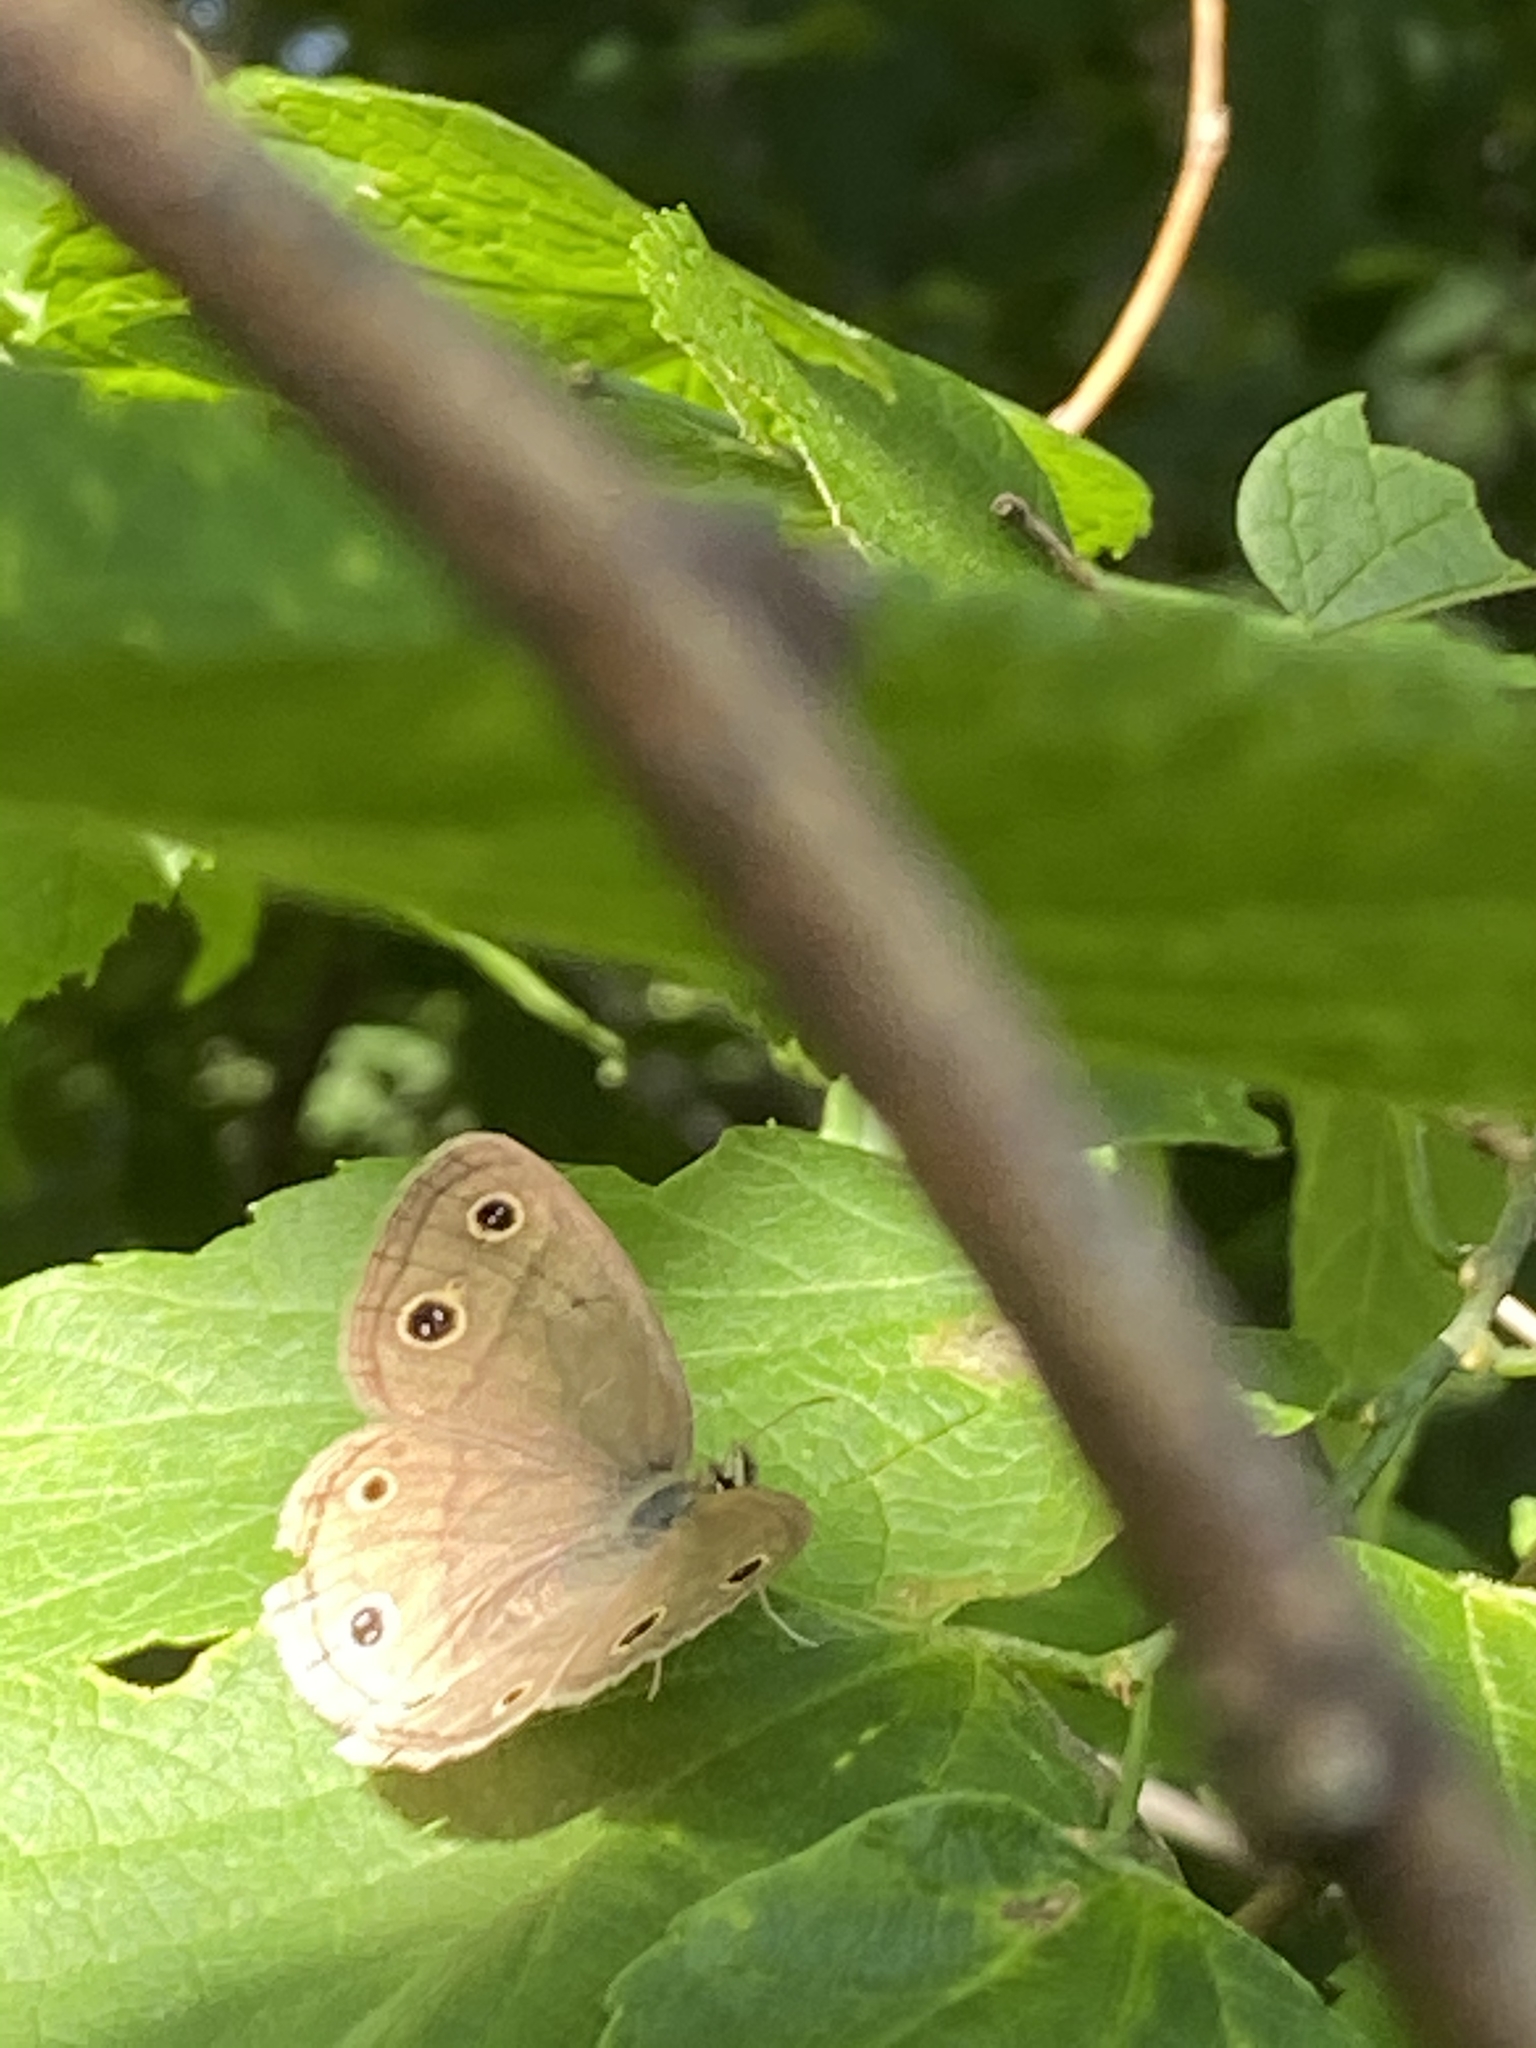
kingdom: Animalia
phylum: Arthropoda
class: Insecta
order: Lepidoptera
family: Nymphalidae
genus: Euptychia
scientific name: Euptychia cymela
